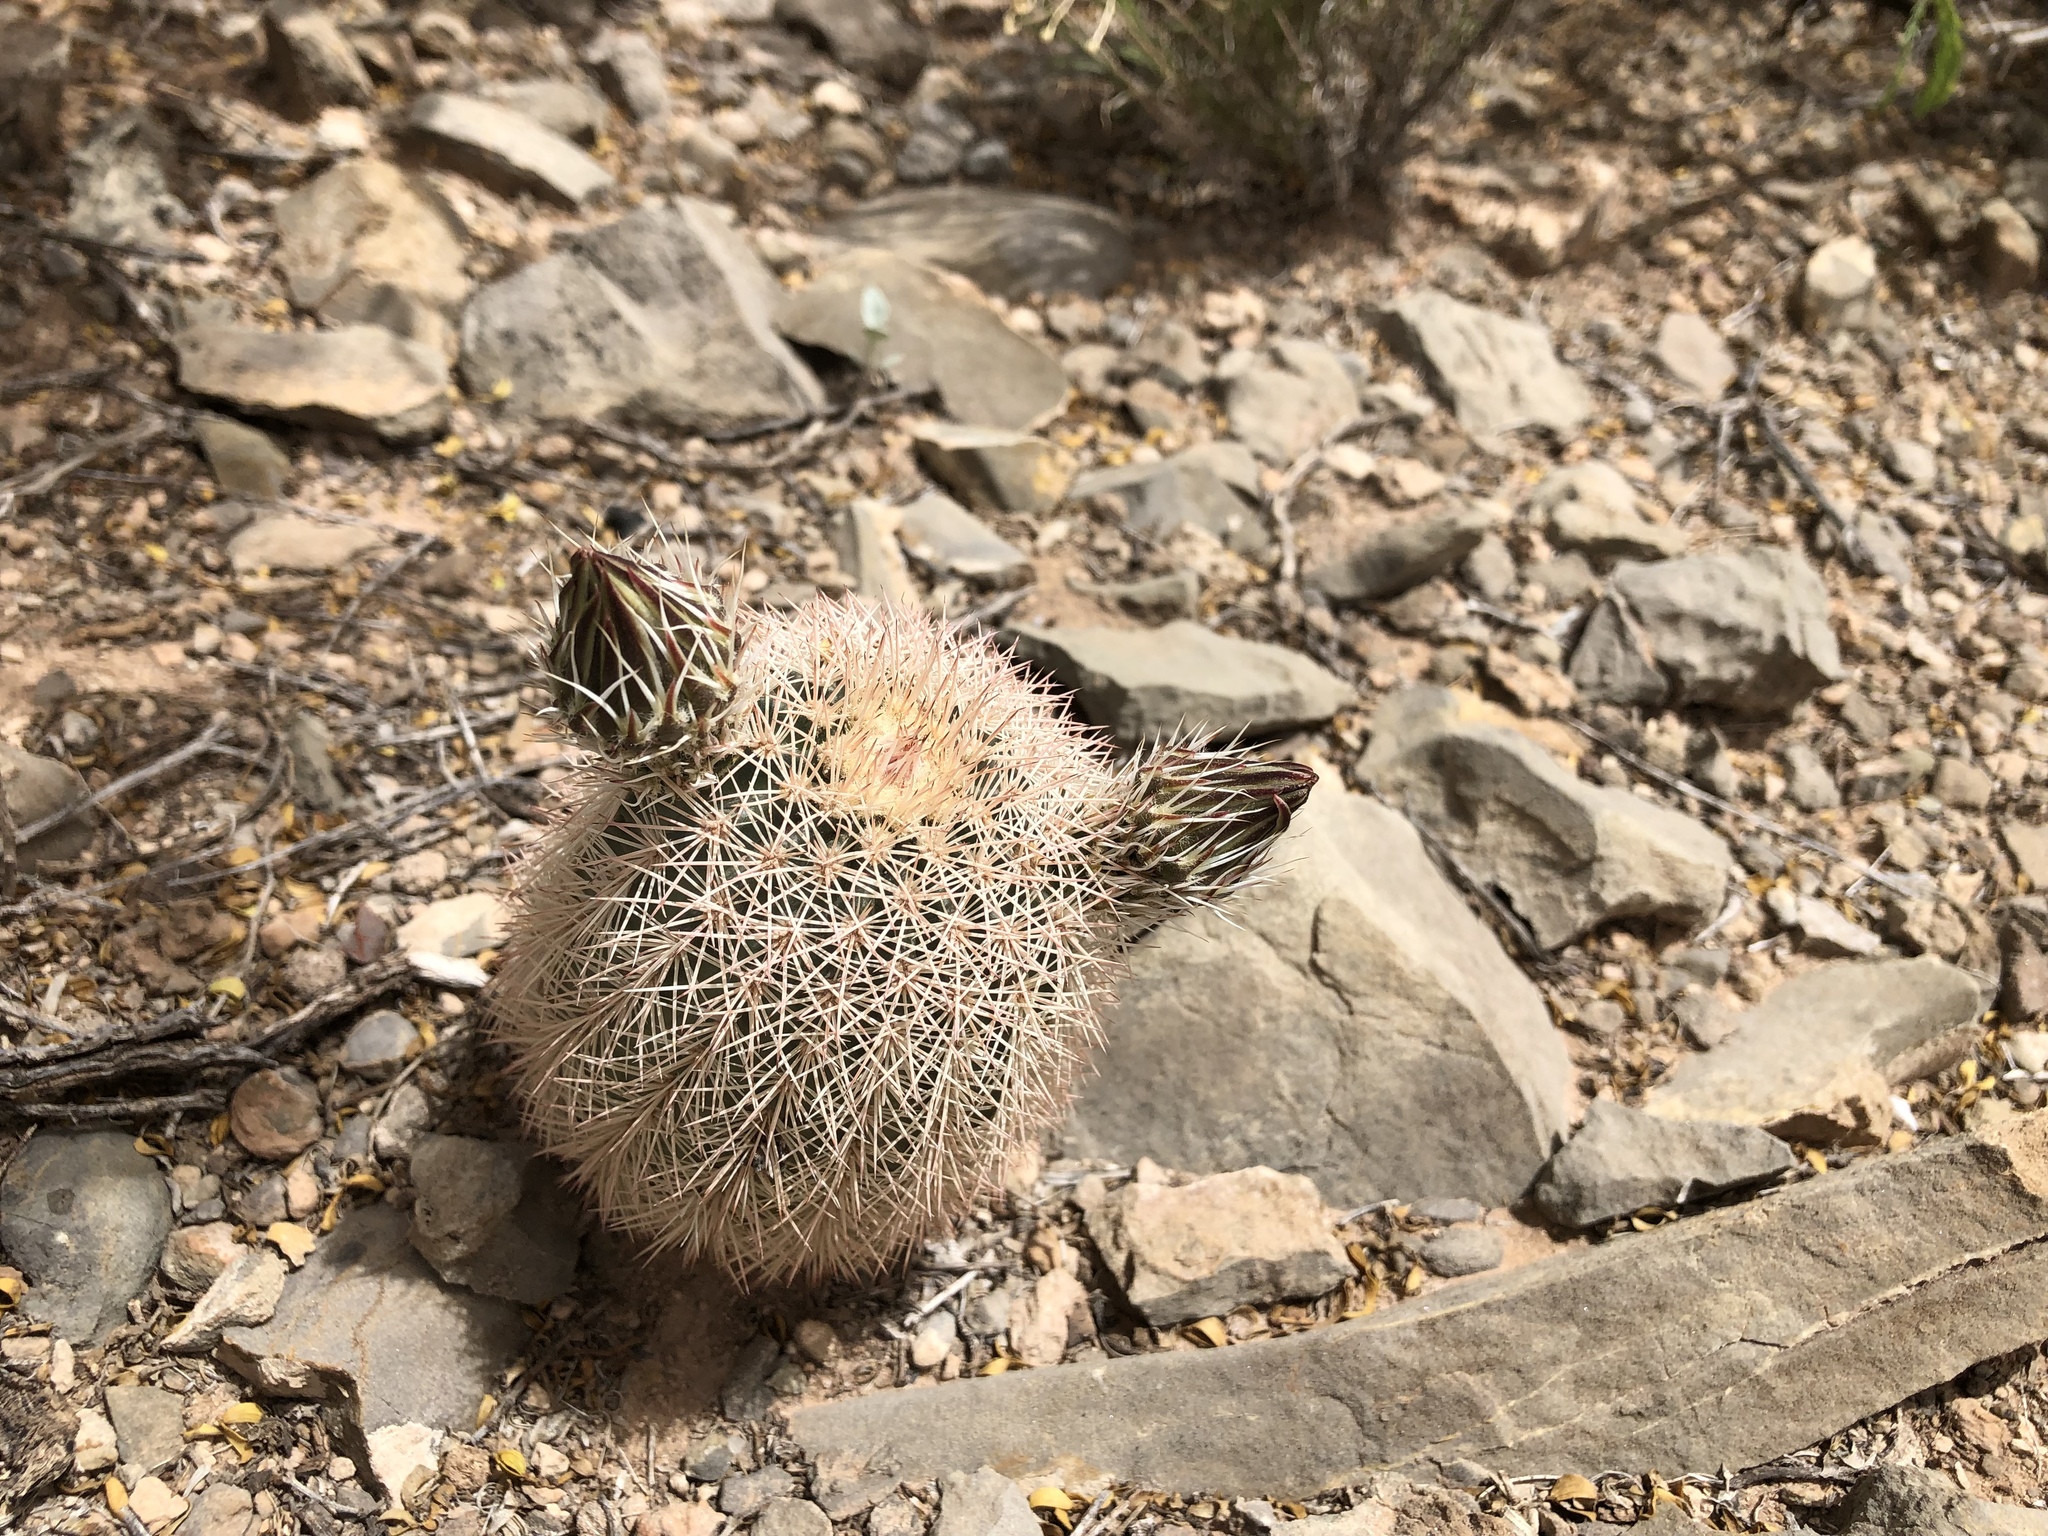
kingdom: Plantae
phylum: Tracheophyta
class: Magnoliopsida
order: Caryophyllales
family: Cactaceae
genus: Echinocereus
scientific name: Echinocereus dasyacanthus
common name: Spiny hedgehog cactus
